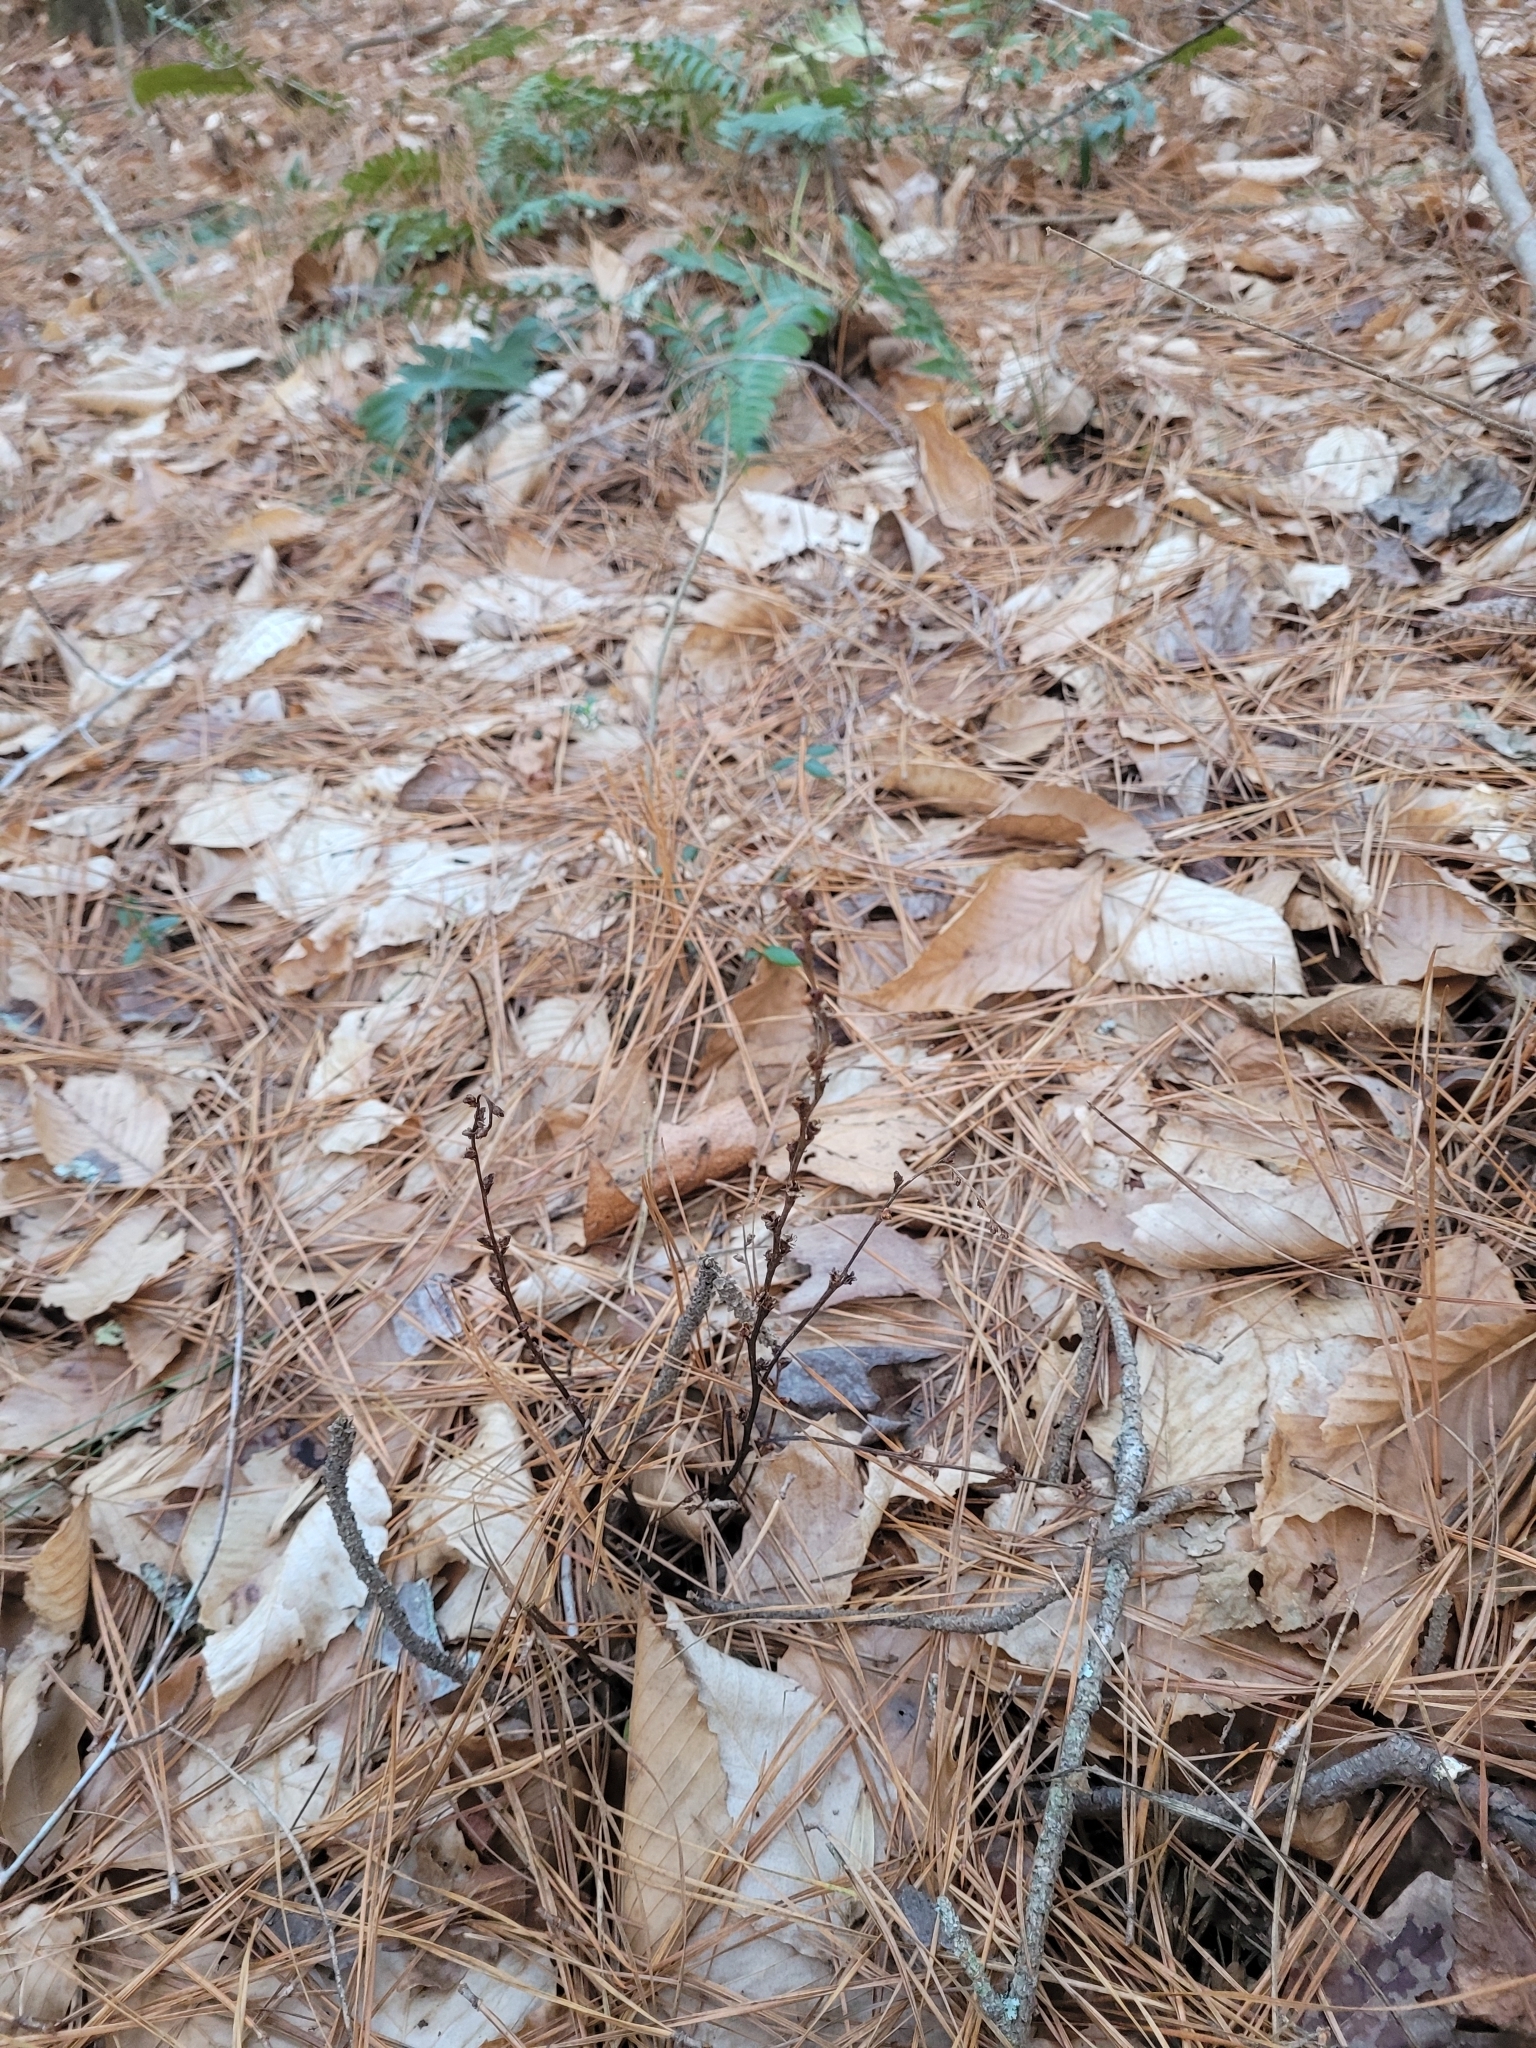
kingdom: Plantae
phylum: Tracheophyta
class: Magnoliopsida
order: Lamiales
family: Orobanchaceae
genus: Epifagus
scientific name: Epifagus virginiana
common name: Beechdrops
